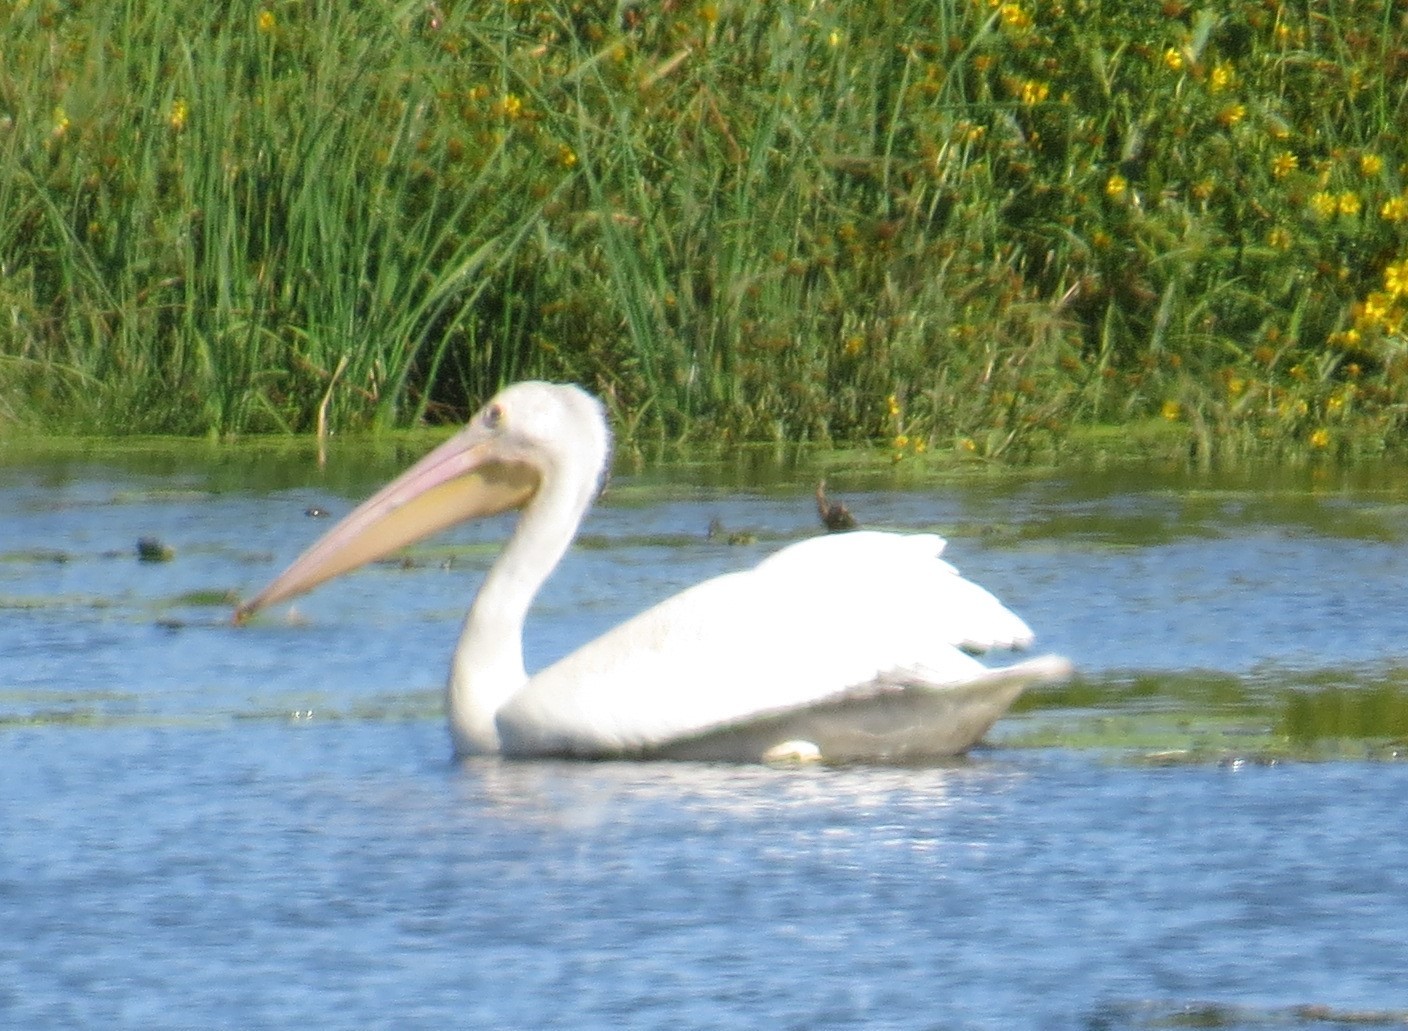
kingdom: Animalia
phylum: Chordata
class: Aves
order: Pelecaniformes
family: Pelecanidae
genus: Pelecanus
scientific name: Pelecanus erythrorhynchos
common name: American white pelican
